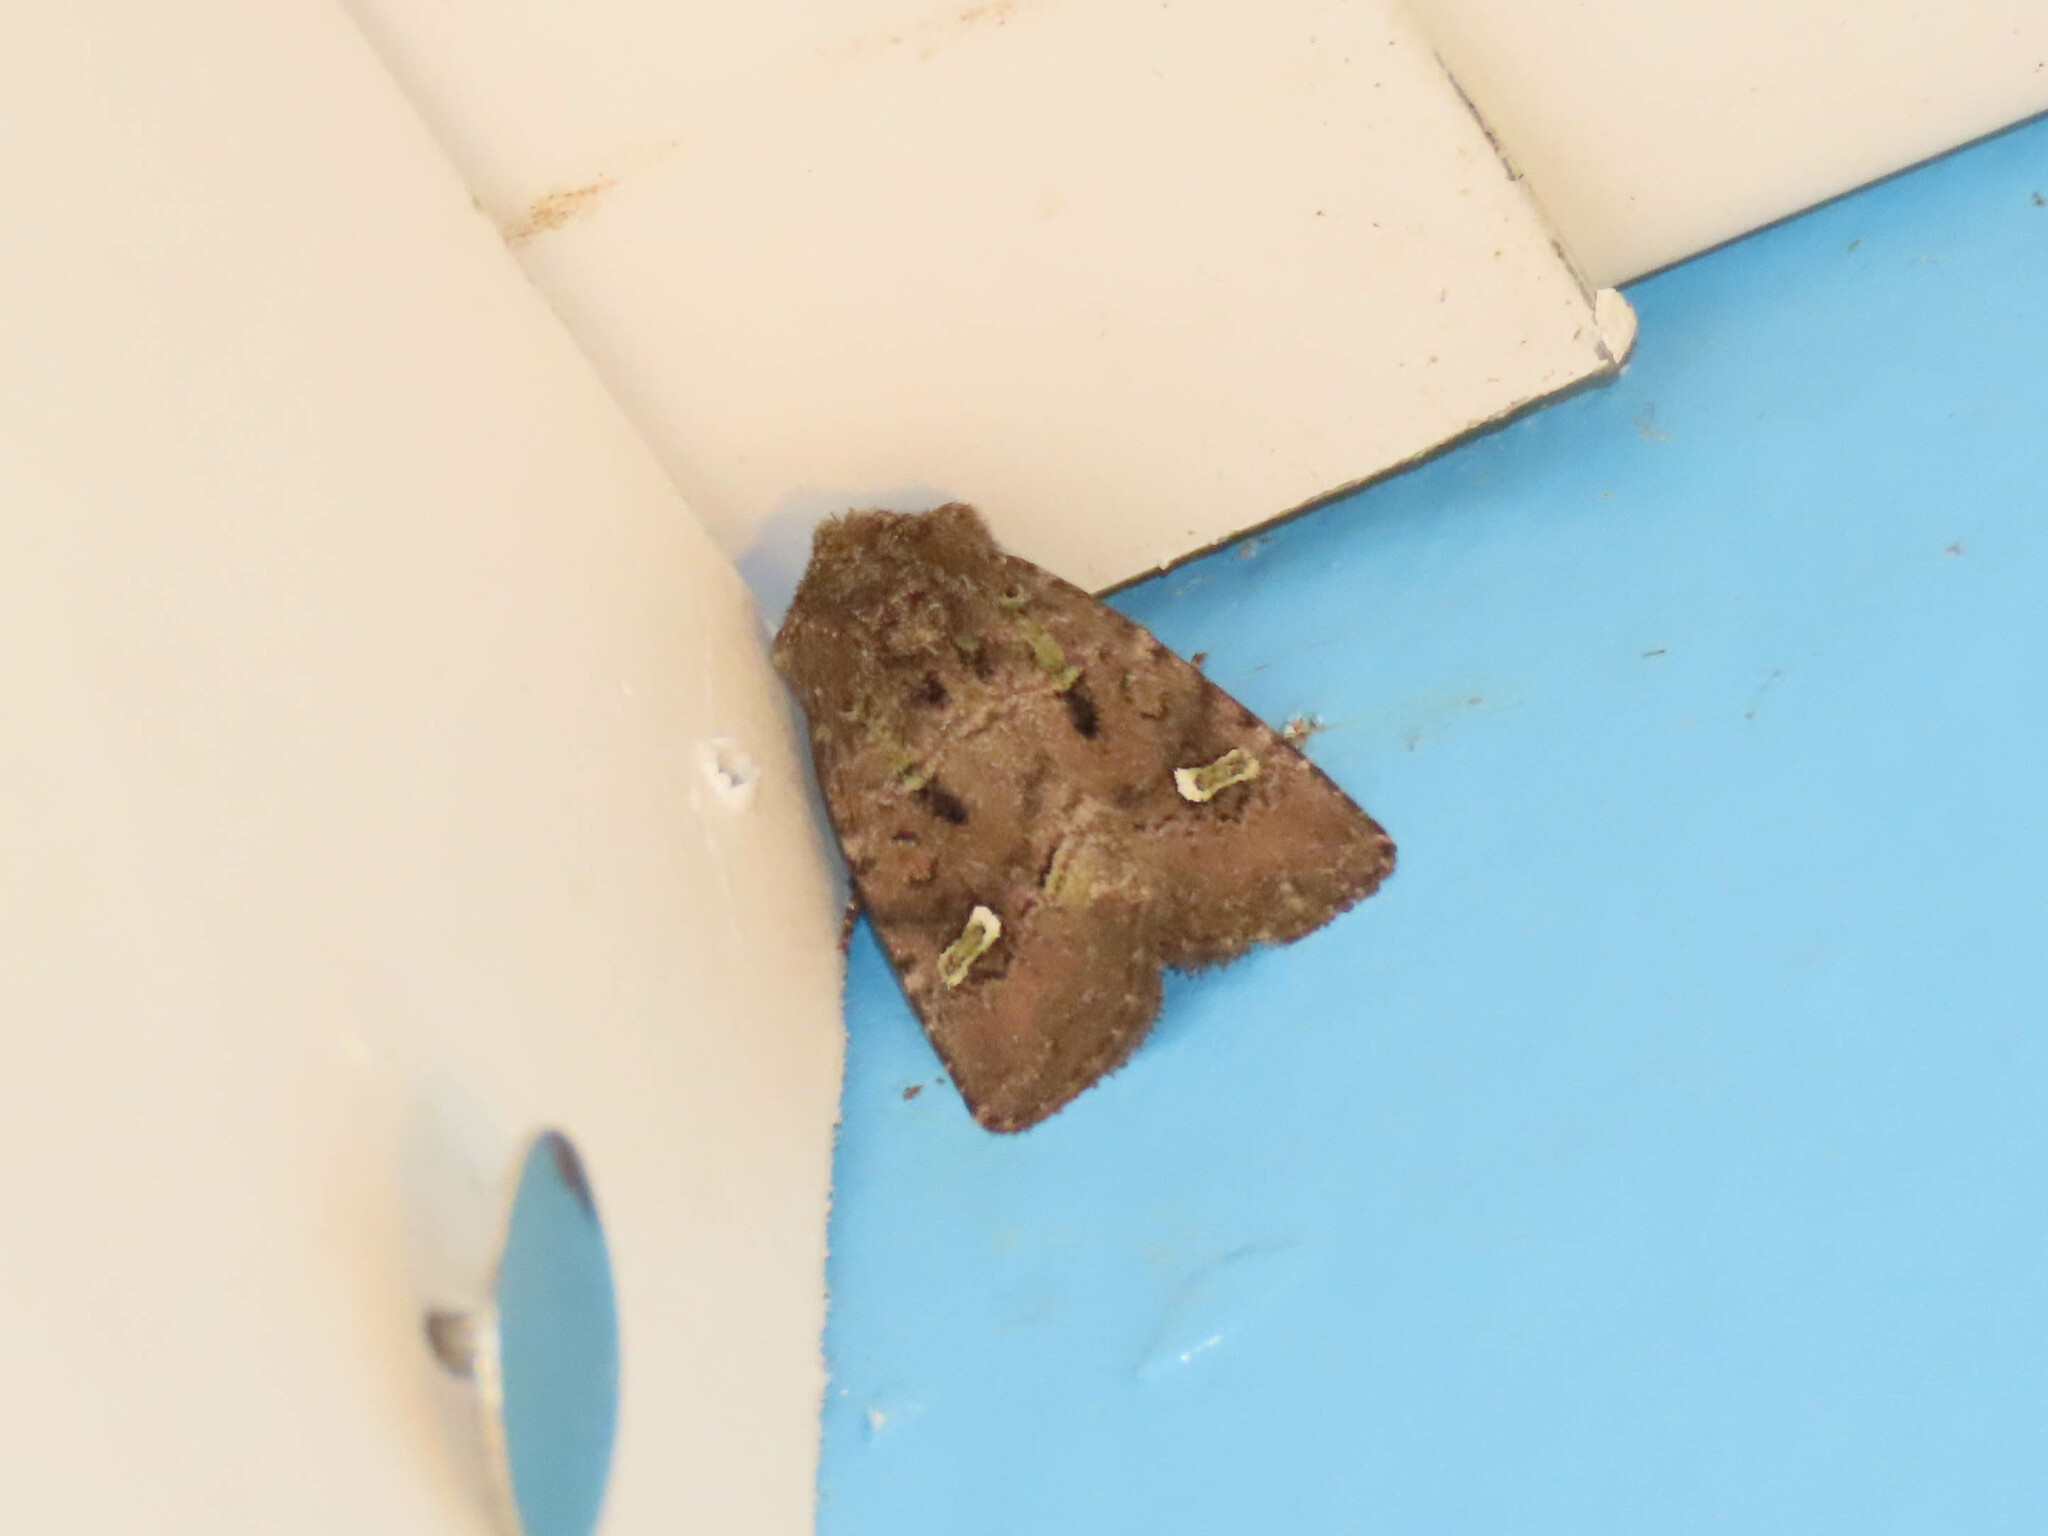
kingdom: Animalia
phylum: Arthropoda
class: Insecta
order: Lepidoptera
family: Noctuidae
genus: Lacinipolia
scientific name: Lacinipolia renigera
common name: Kidney-spotted minor
